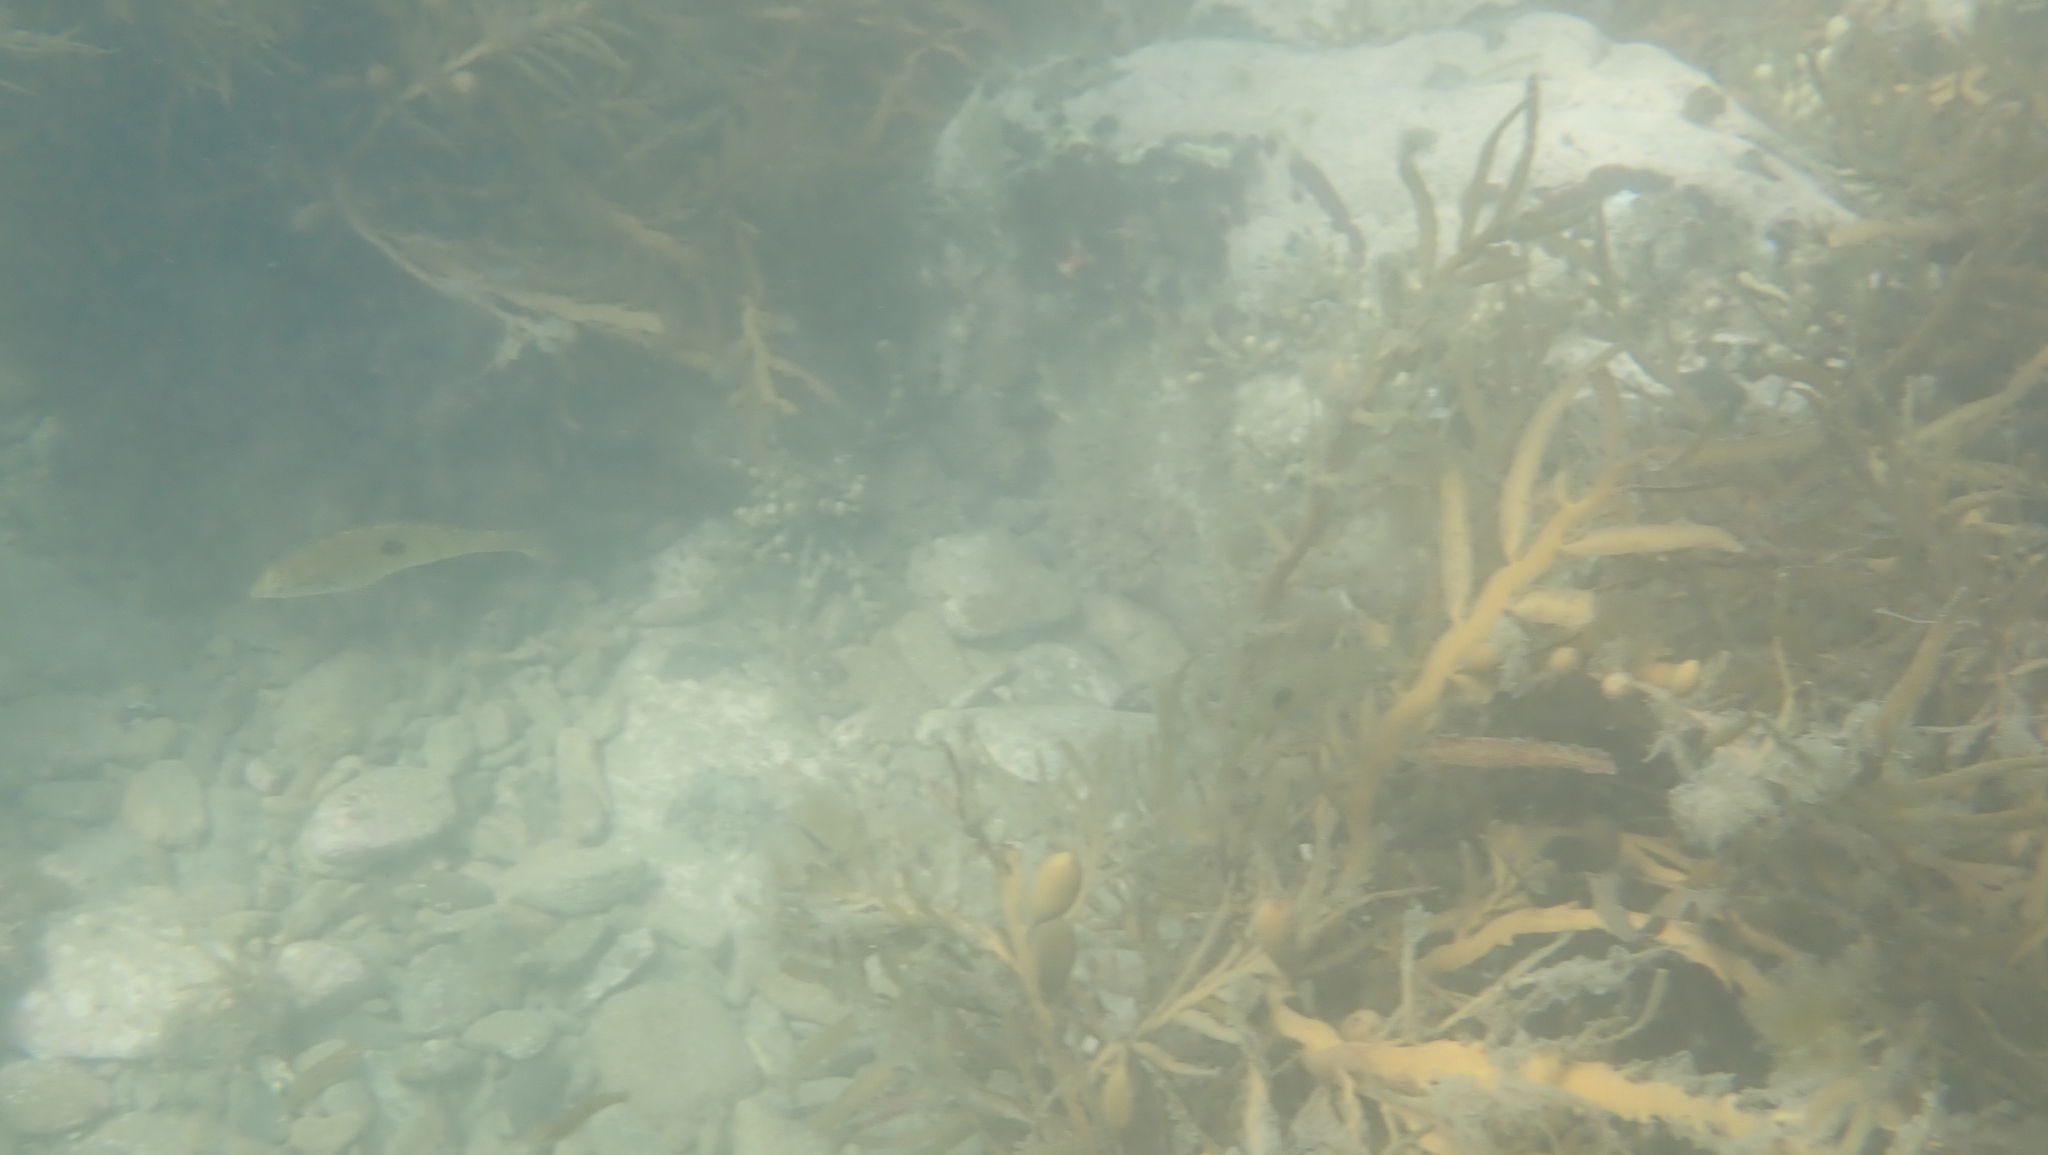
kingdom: Animalia
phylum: Chordata
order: Perciformes
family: Labridae
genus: Notolabrus
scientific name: Notolabrus celidotus
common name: Spotty
